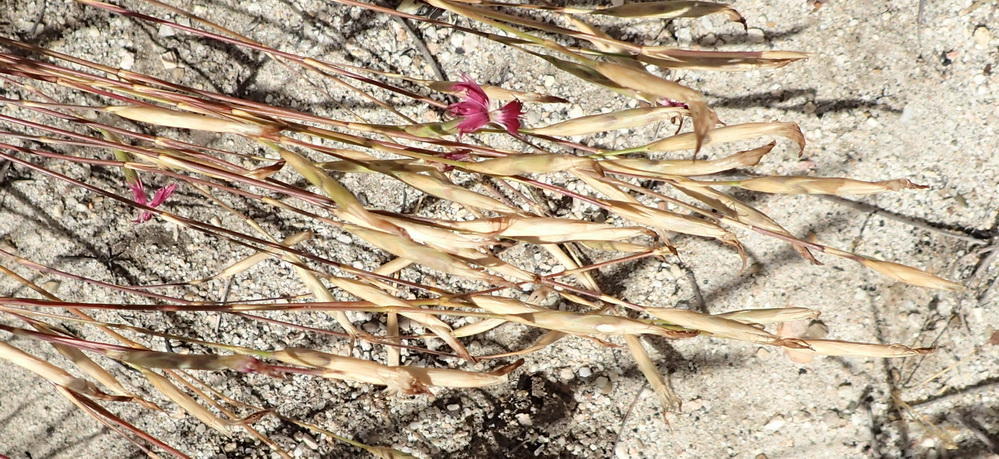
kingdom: Plantae
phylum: Tracheophyta
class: Magnoliopsida
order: Caryophyllales
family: Caryophyllaceae
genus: Dianthus
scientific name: Dianthus bolusii
